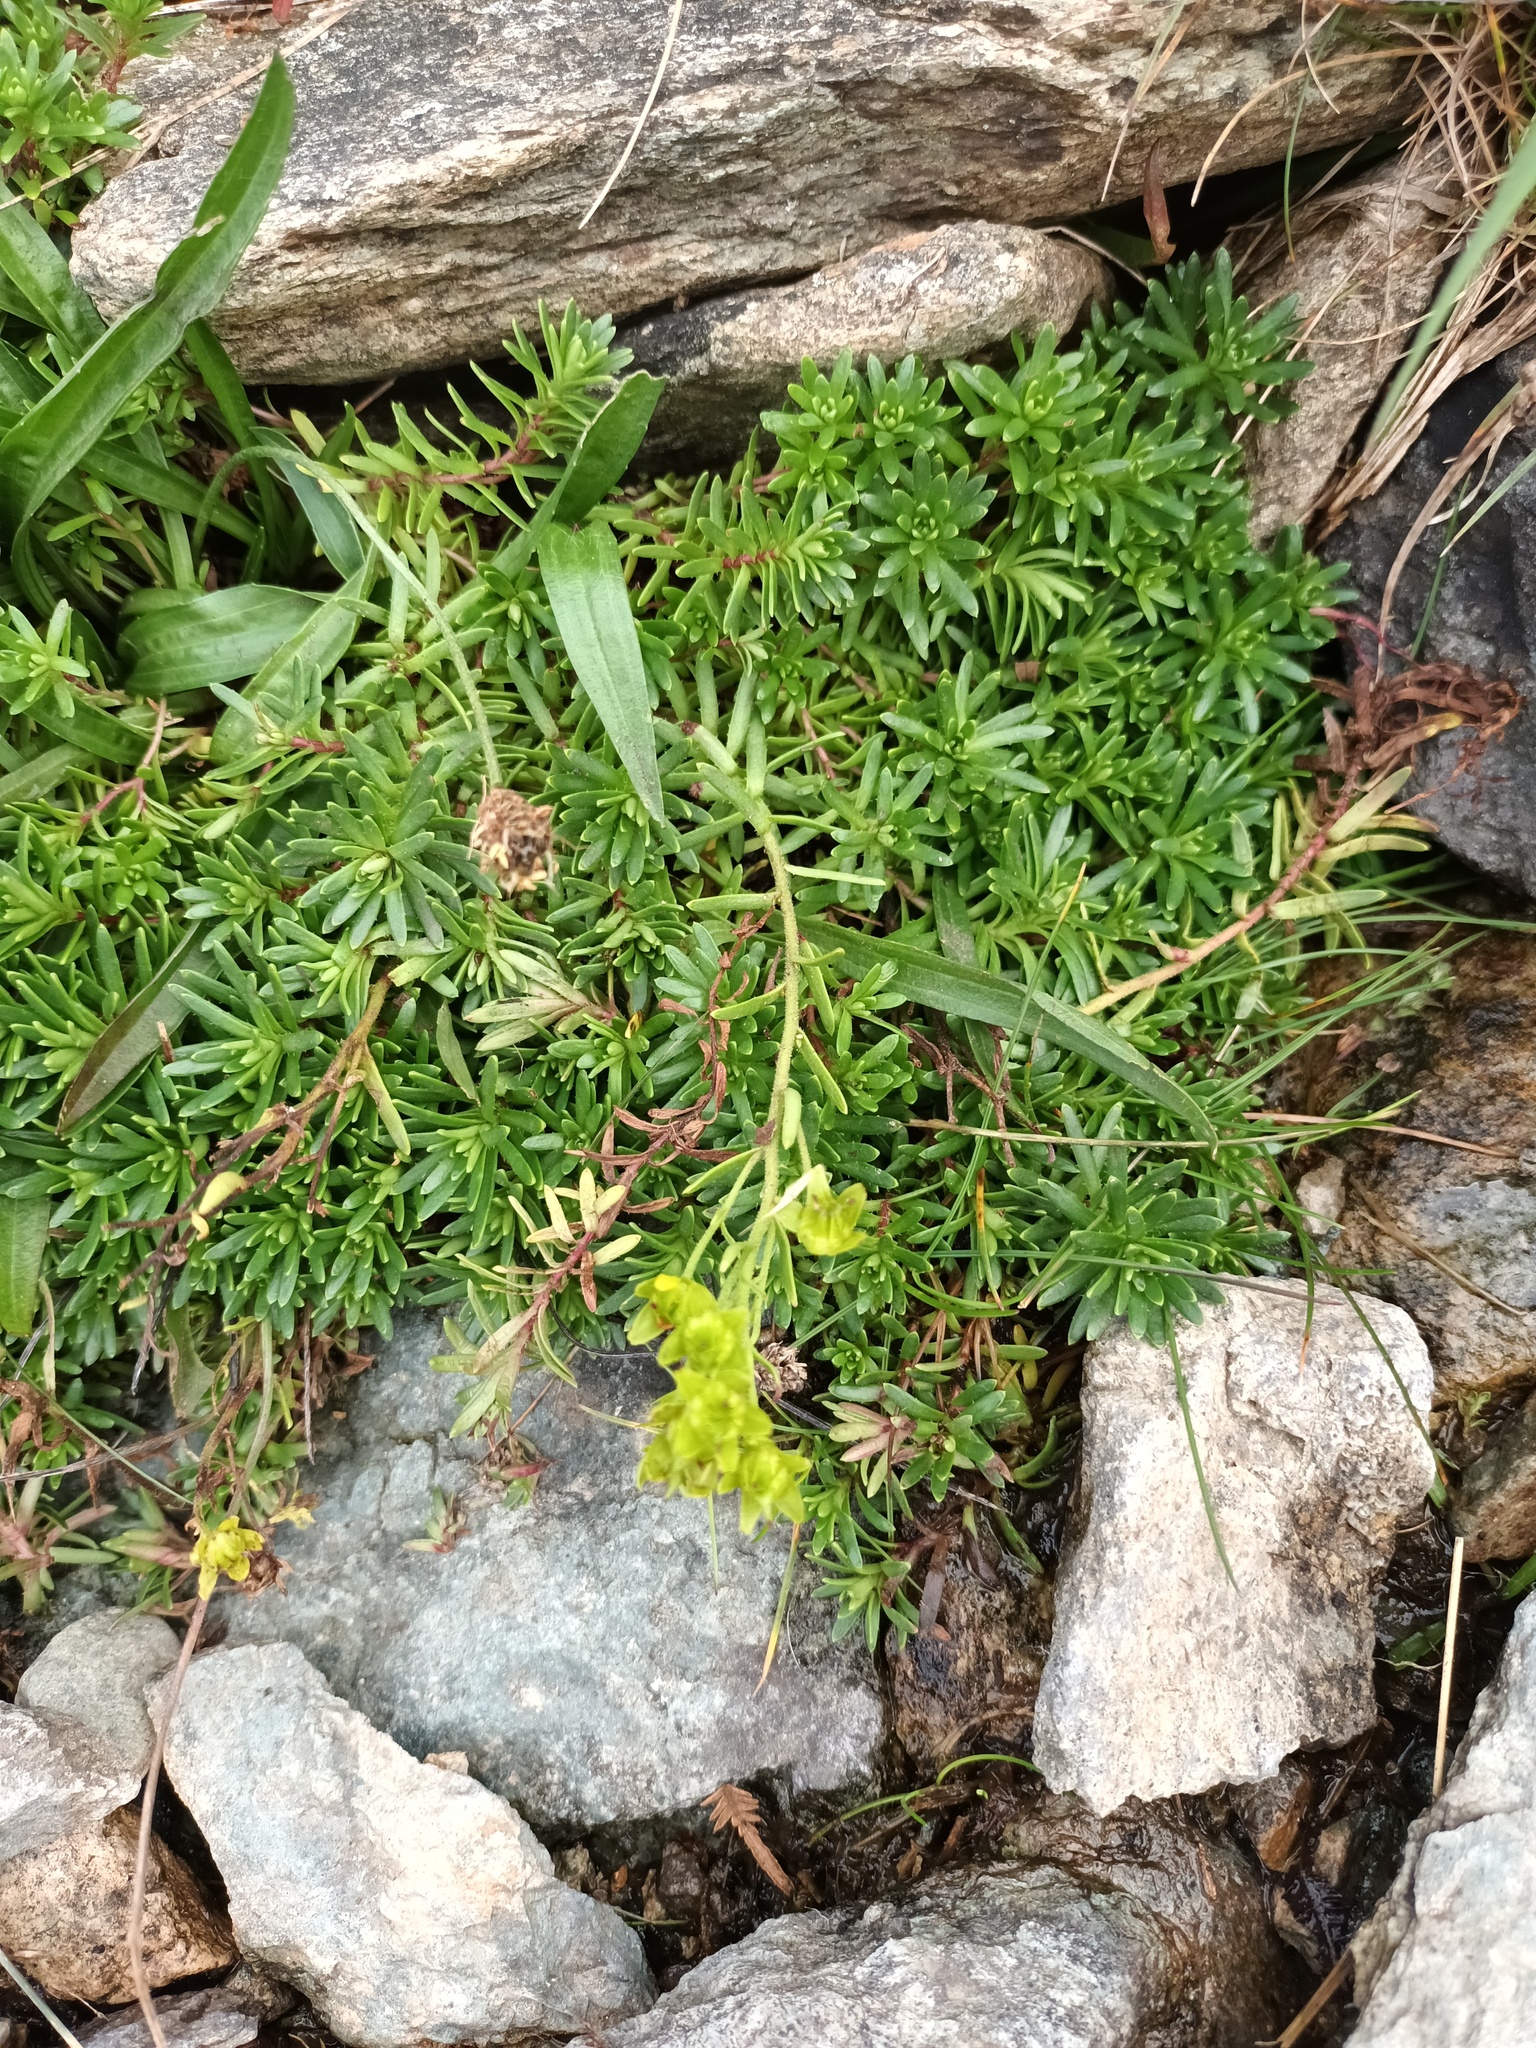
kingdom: Plantae
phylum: Tracheophyta
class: Magnoliopsida
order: Saxifragales
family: Saxifragaceae
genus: Saxifraga
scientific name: Saxifraga aizoides
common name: Yellow mountain saxifrage
